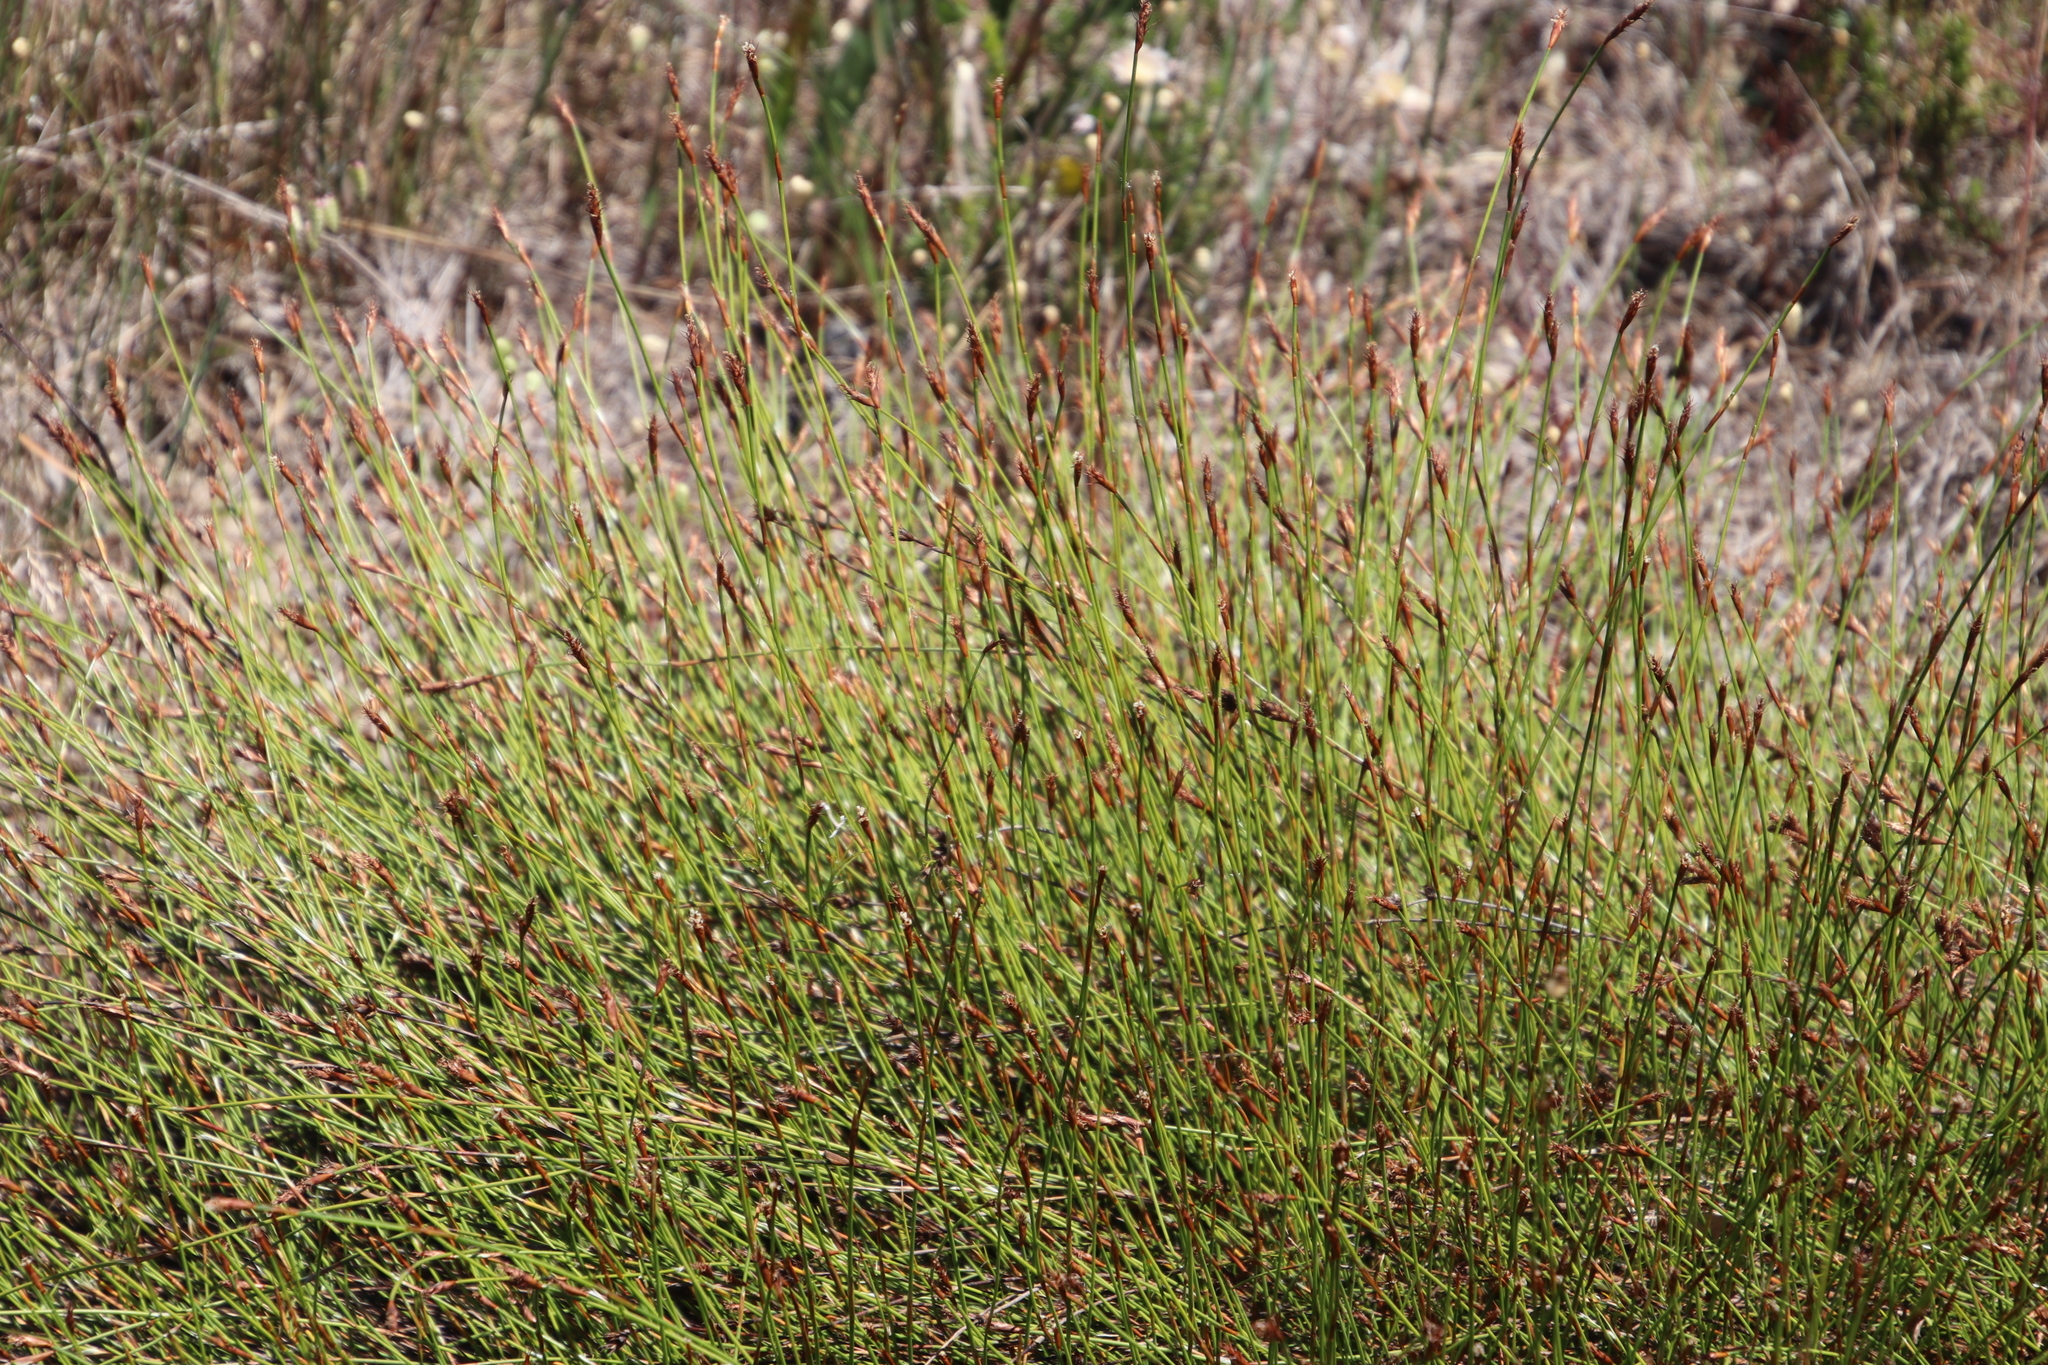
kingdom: Plantae
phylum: Tracheophyta
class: Liliopsida
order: Poales
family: Restionaceae
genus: Restio
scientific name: Restio capensis
